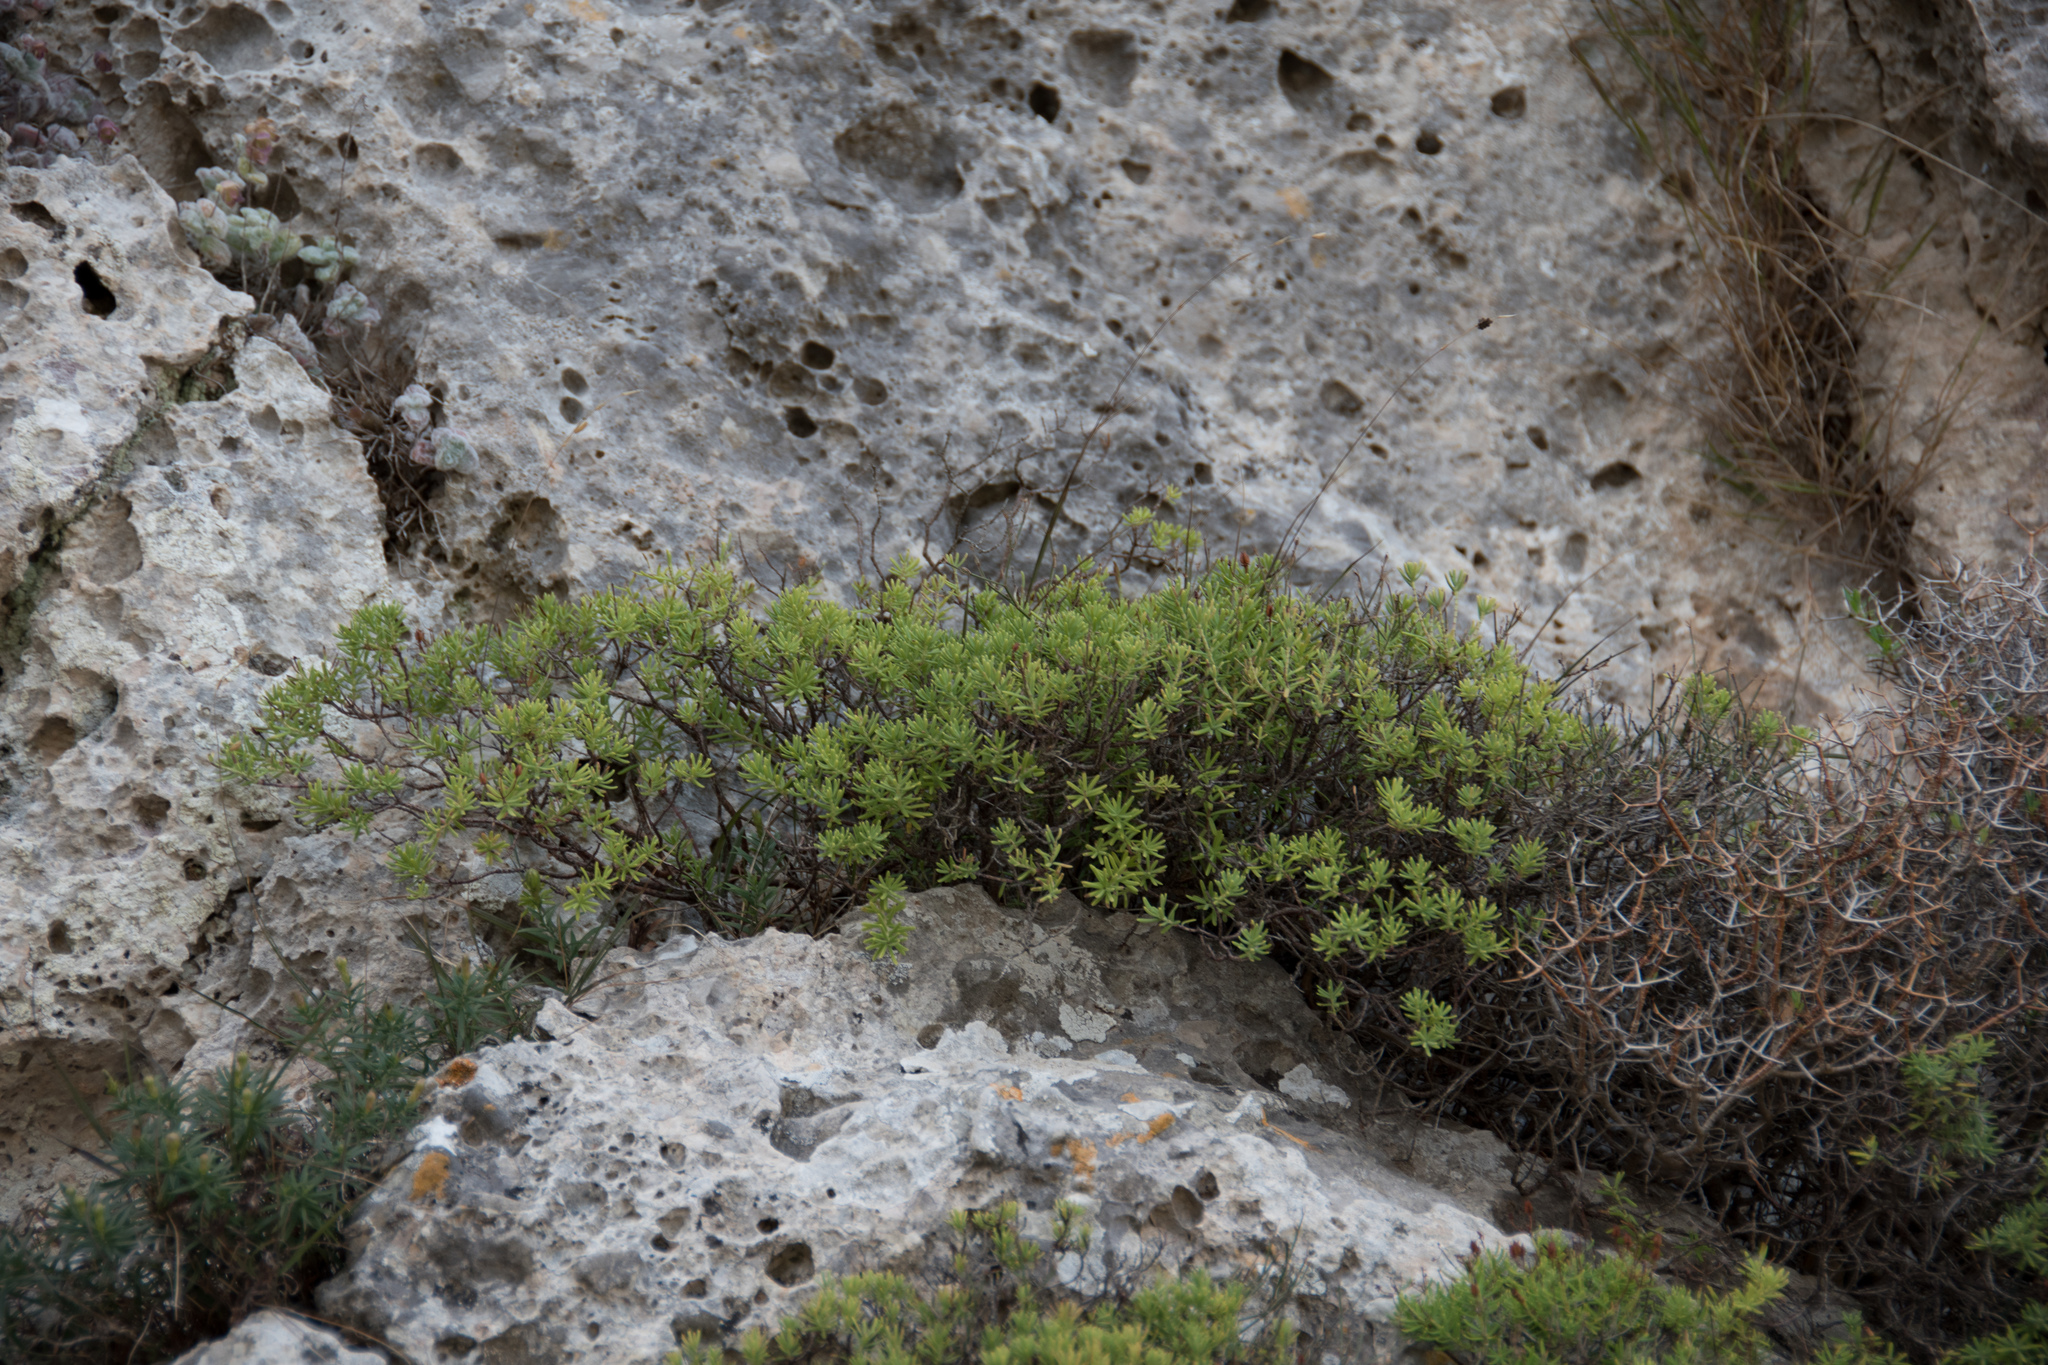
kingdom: Plantae
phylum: Tracheophyta
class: Magnoliopsida
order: Malpighiales
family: Hypericaceae
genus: Hypericum
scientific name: Hypericum amblyocalyx
